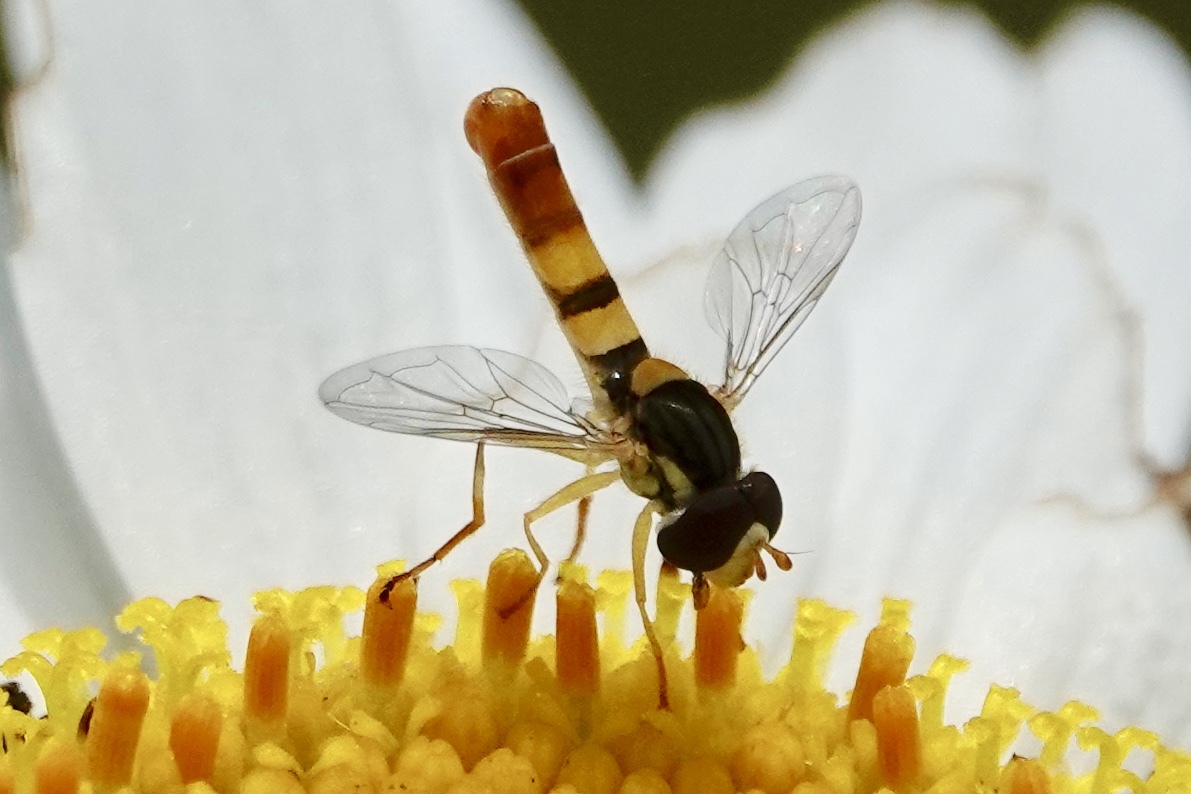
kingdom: Animalia
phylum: Arthropoda
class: Insecta
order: Diptera
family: Syrphidae
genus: Sphaerophoria
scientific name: Sphaerophoria contigua
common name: Tufted globetail
